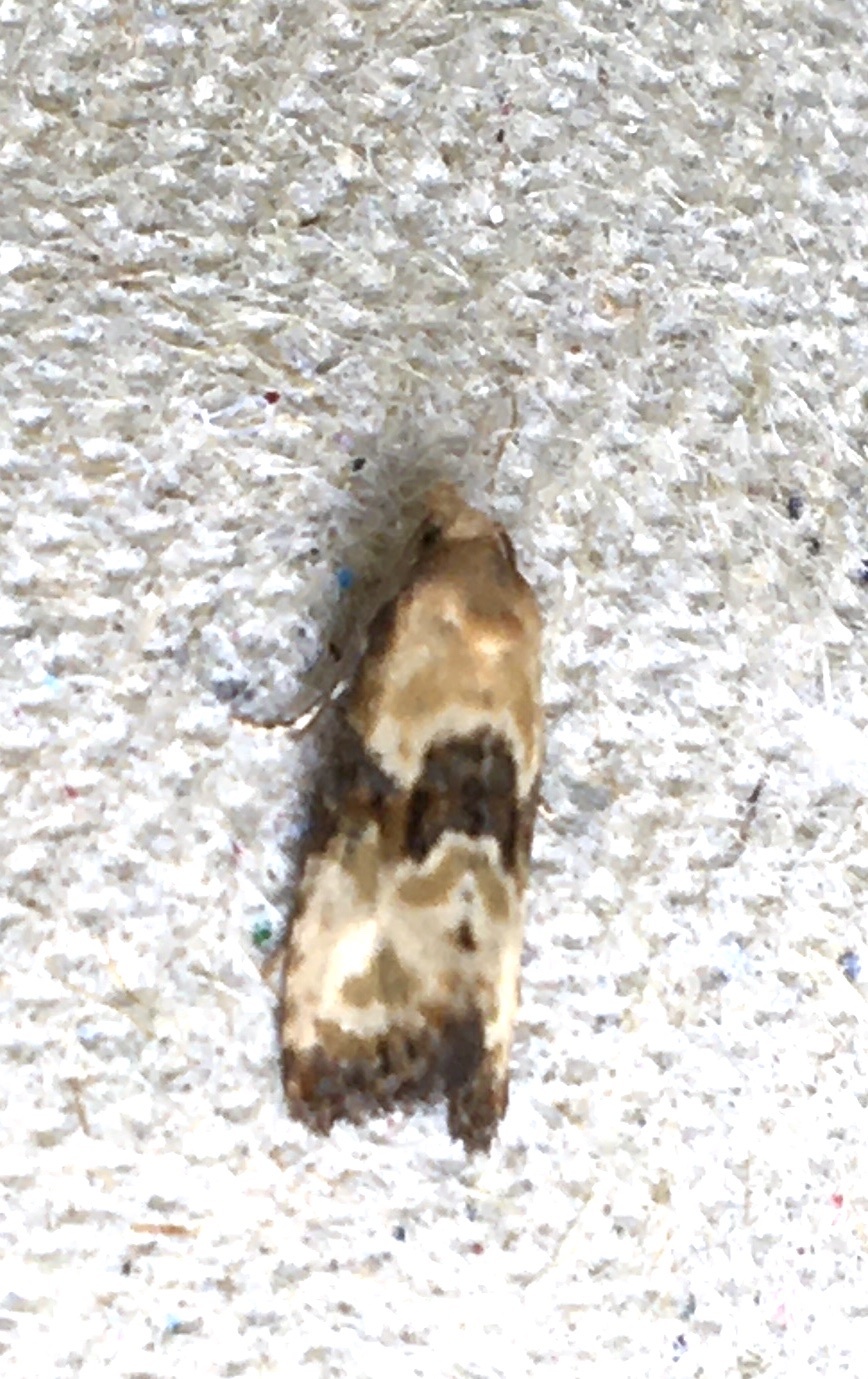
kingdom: Animalia
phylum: Arthropoda
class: Insecta
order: Lepidoptera
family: Tortricidae
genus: Eupoecilia
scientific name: Eupoecilia angustana
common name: Marbled conch
